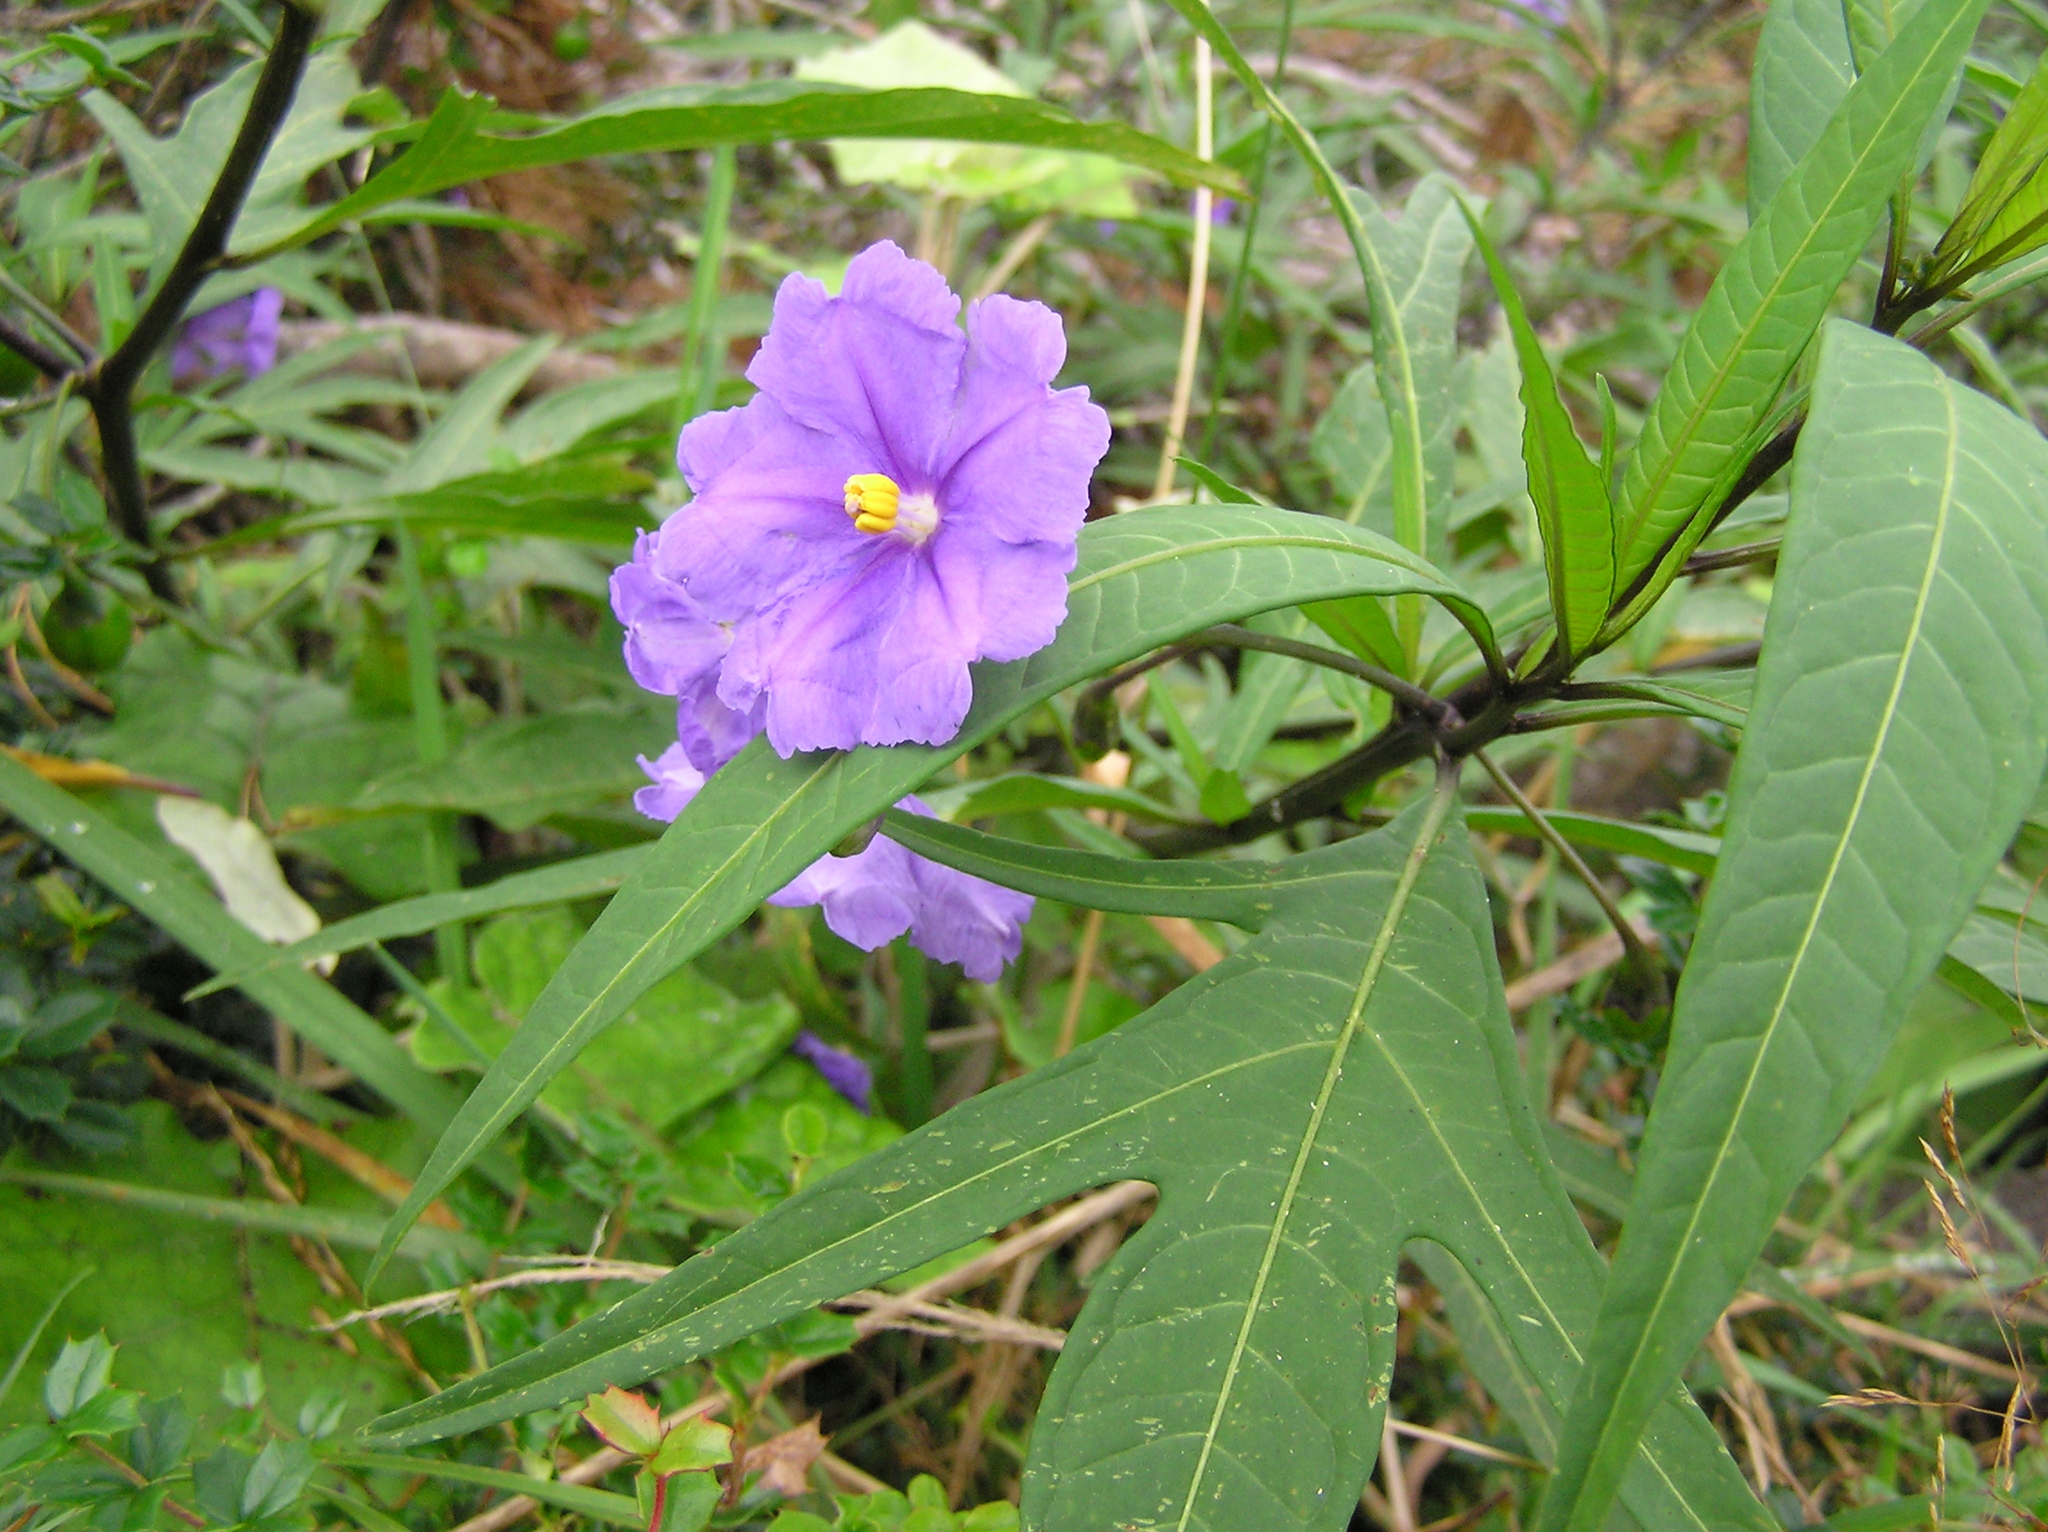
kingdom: Plantae
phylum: Tracheophyta
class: Magnoliopsida
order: Solanales
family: Solanaceae
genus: Solanum
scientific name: Solanum laciniatum
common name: Kangaroo-apple
